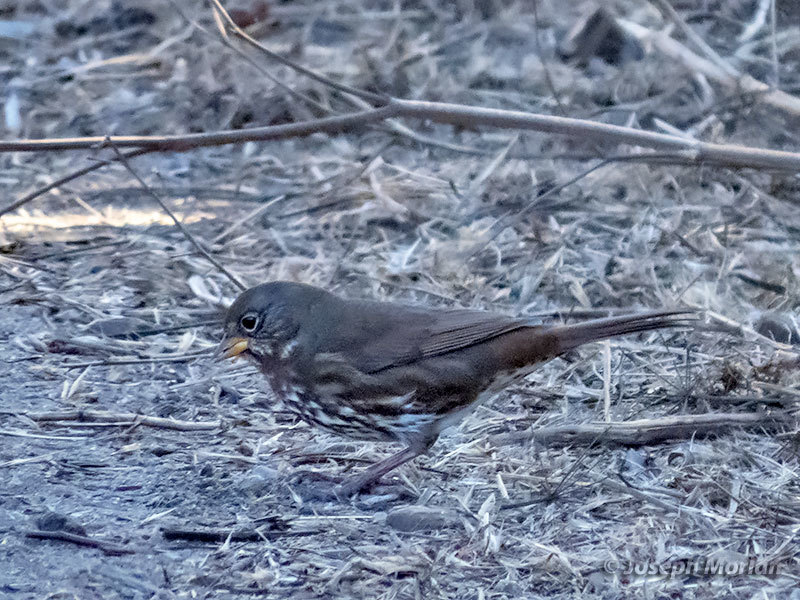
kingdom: Animalia
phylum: Chordata
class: Aves
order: Passeriformes
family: Passerellidae
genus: Passerella
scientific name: Passerella iliaca
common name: Fox sparrow
